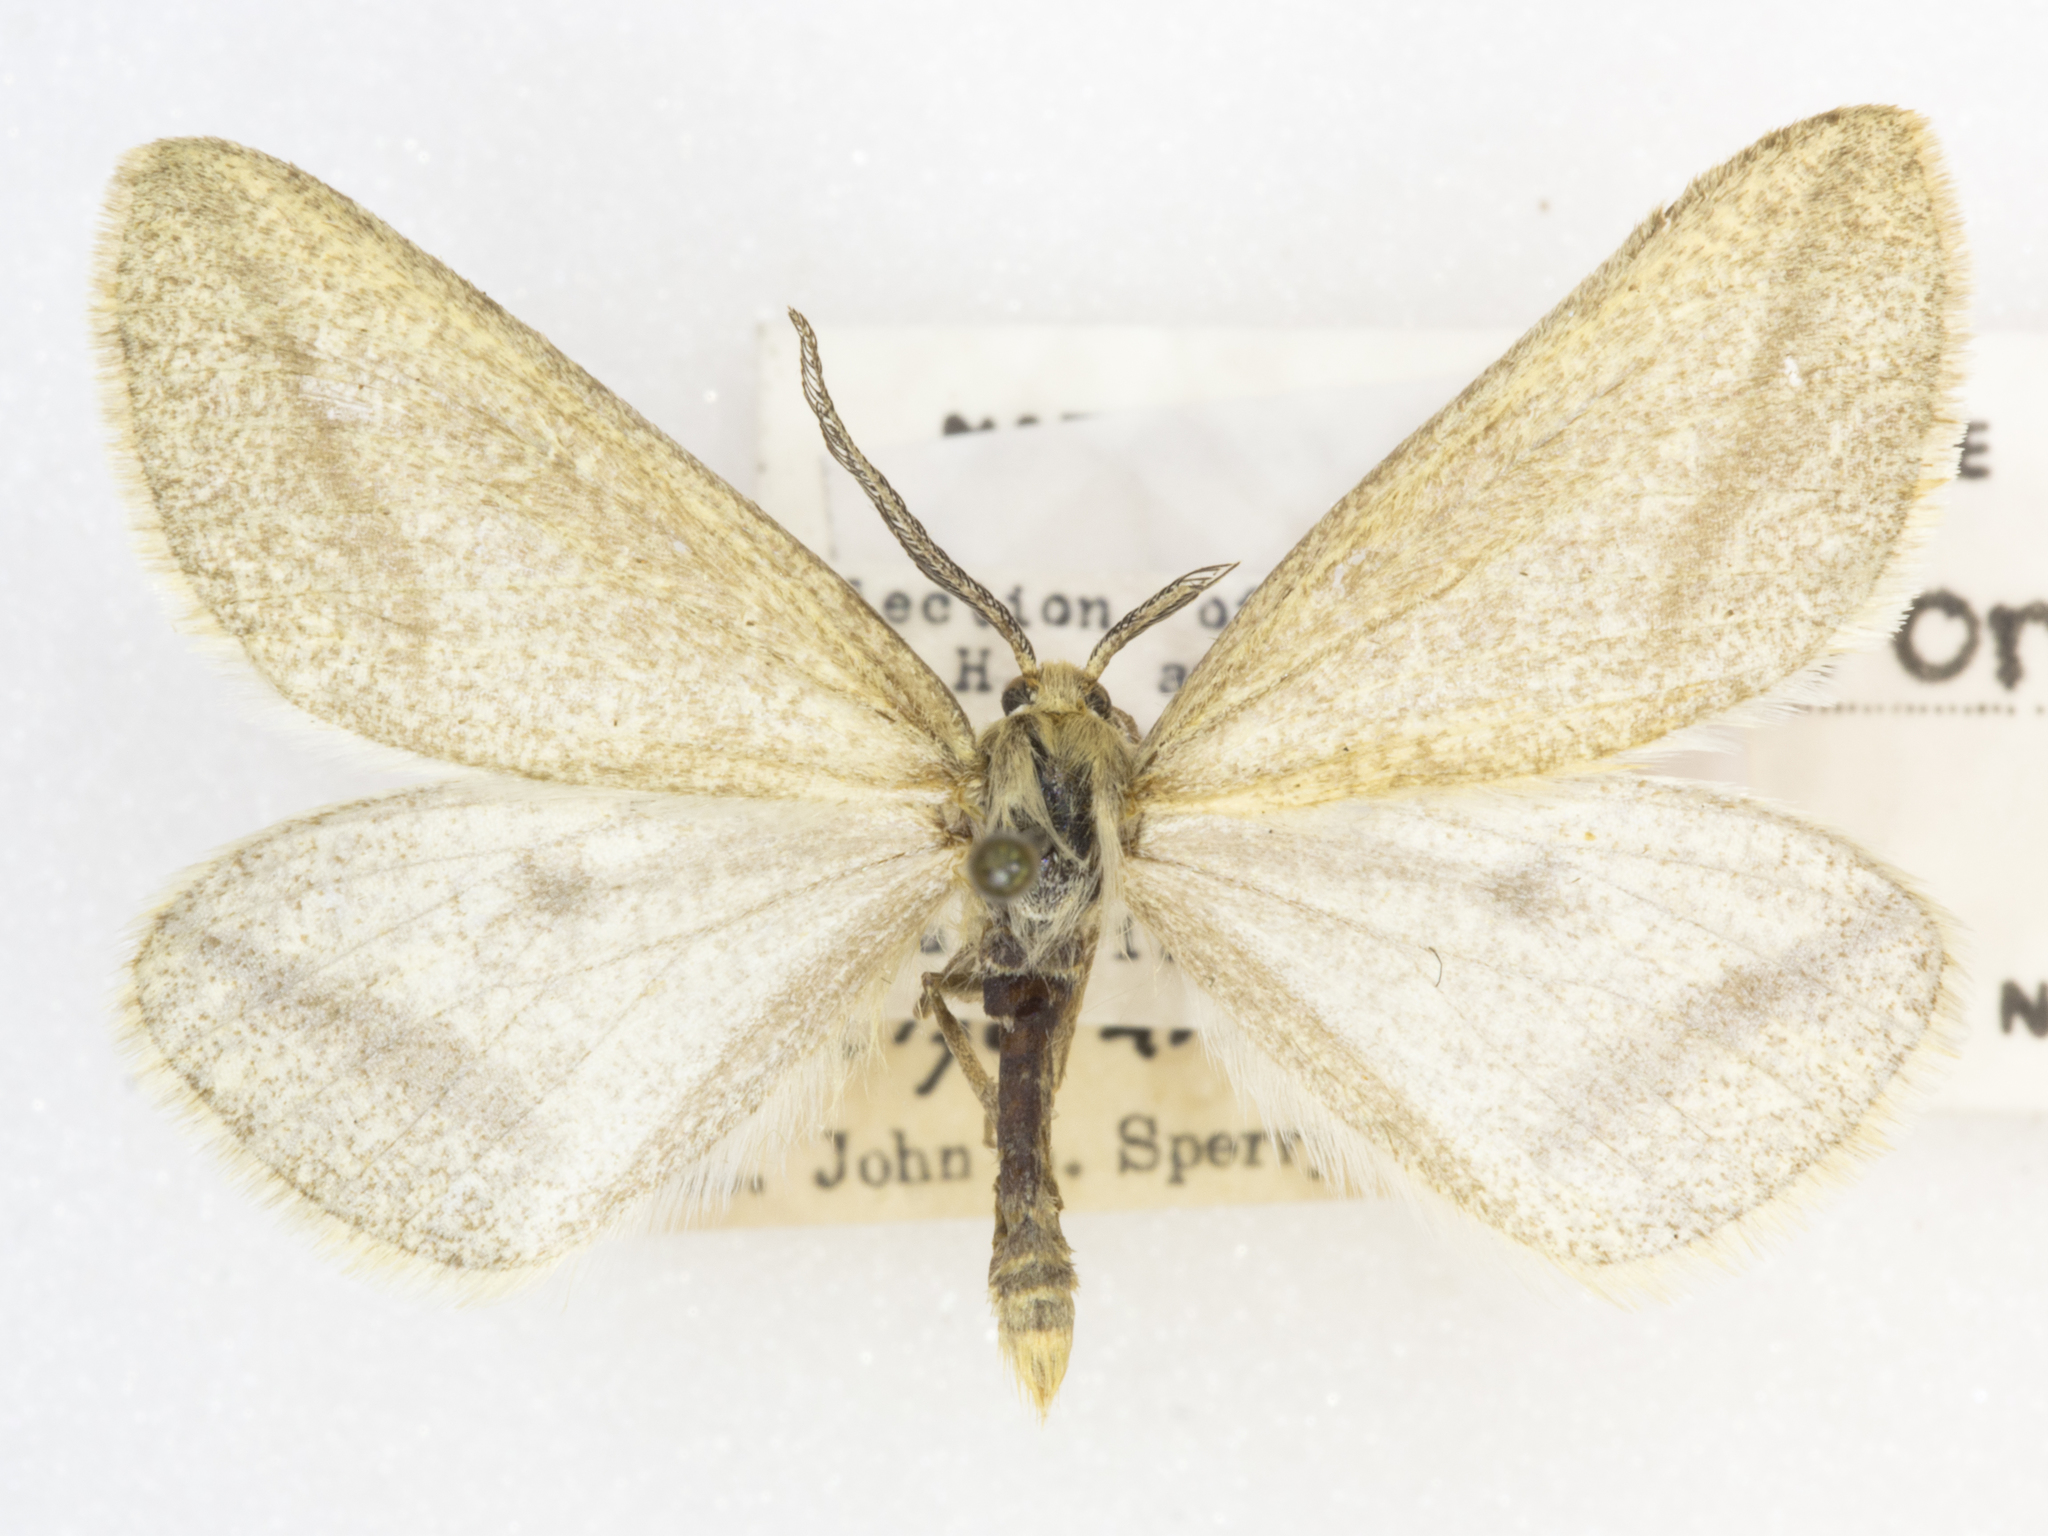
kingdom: Animalia
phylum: Arthropoda
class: Insecta
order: Lepidoptera
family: Geometridae
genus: Aspitates
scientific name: Aspitates aberrata
